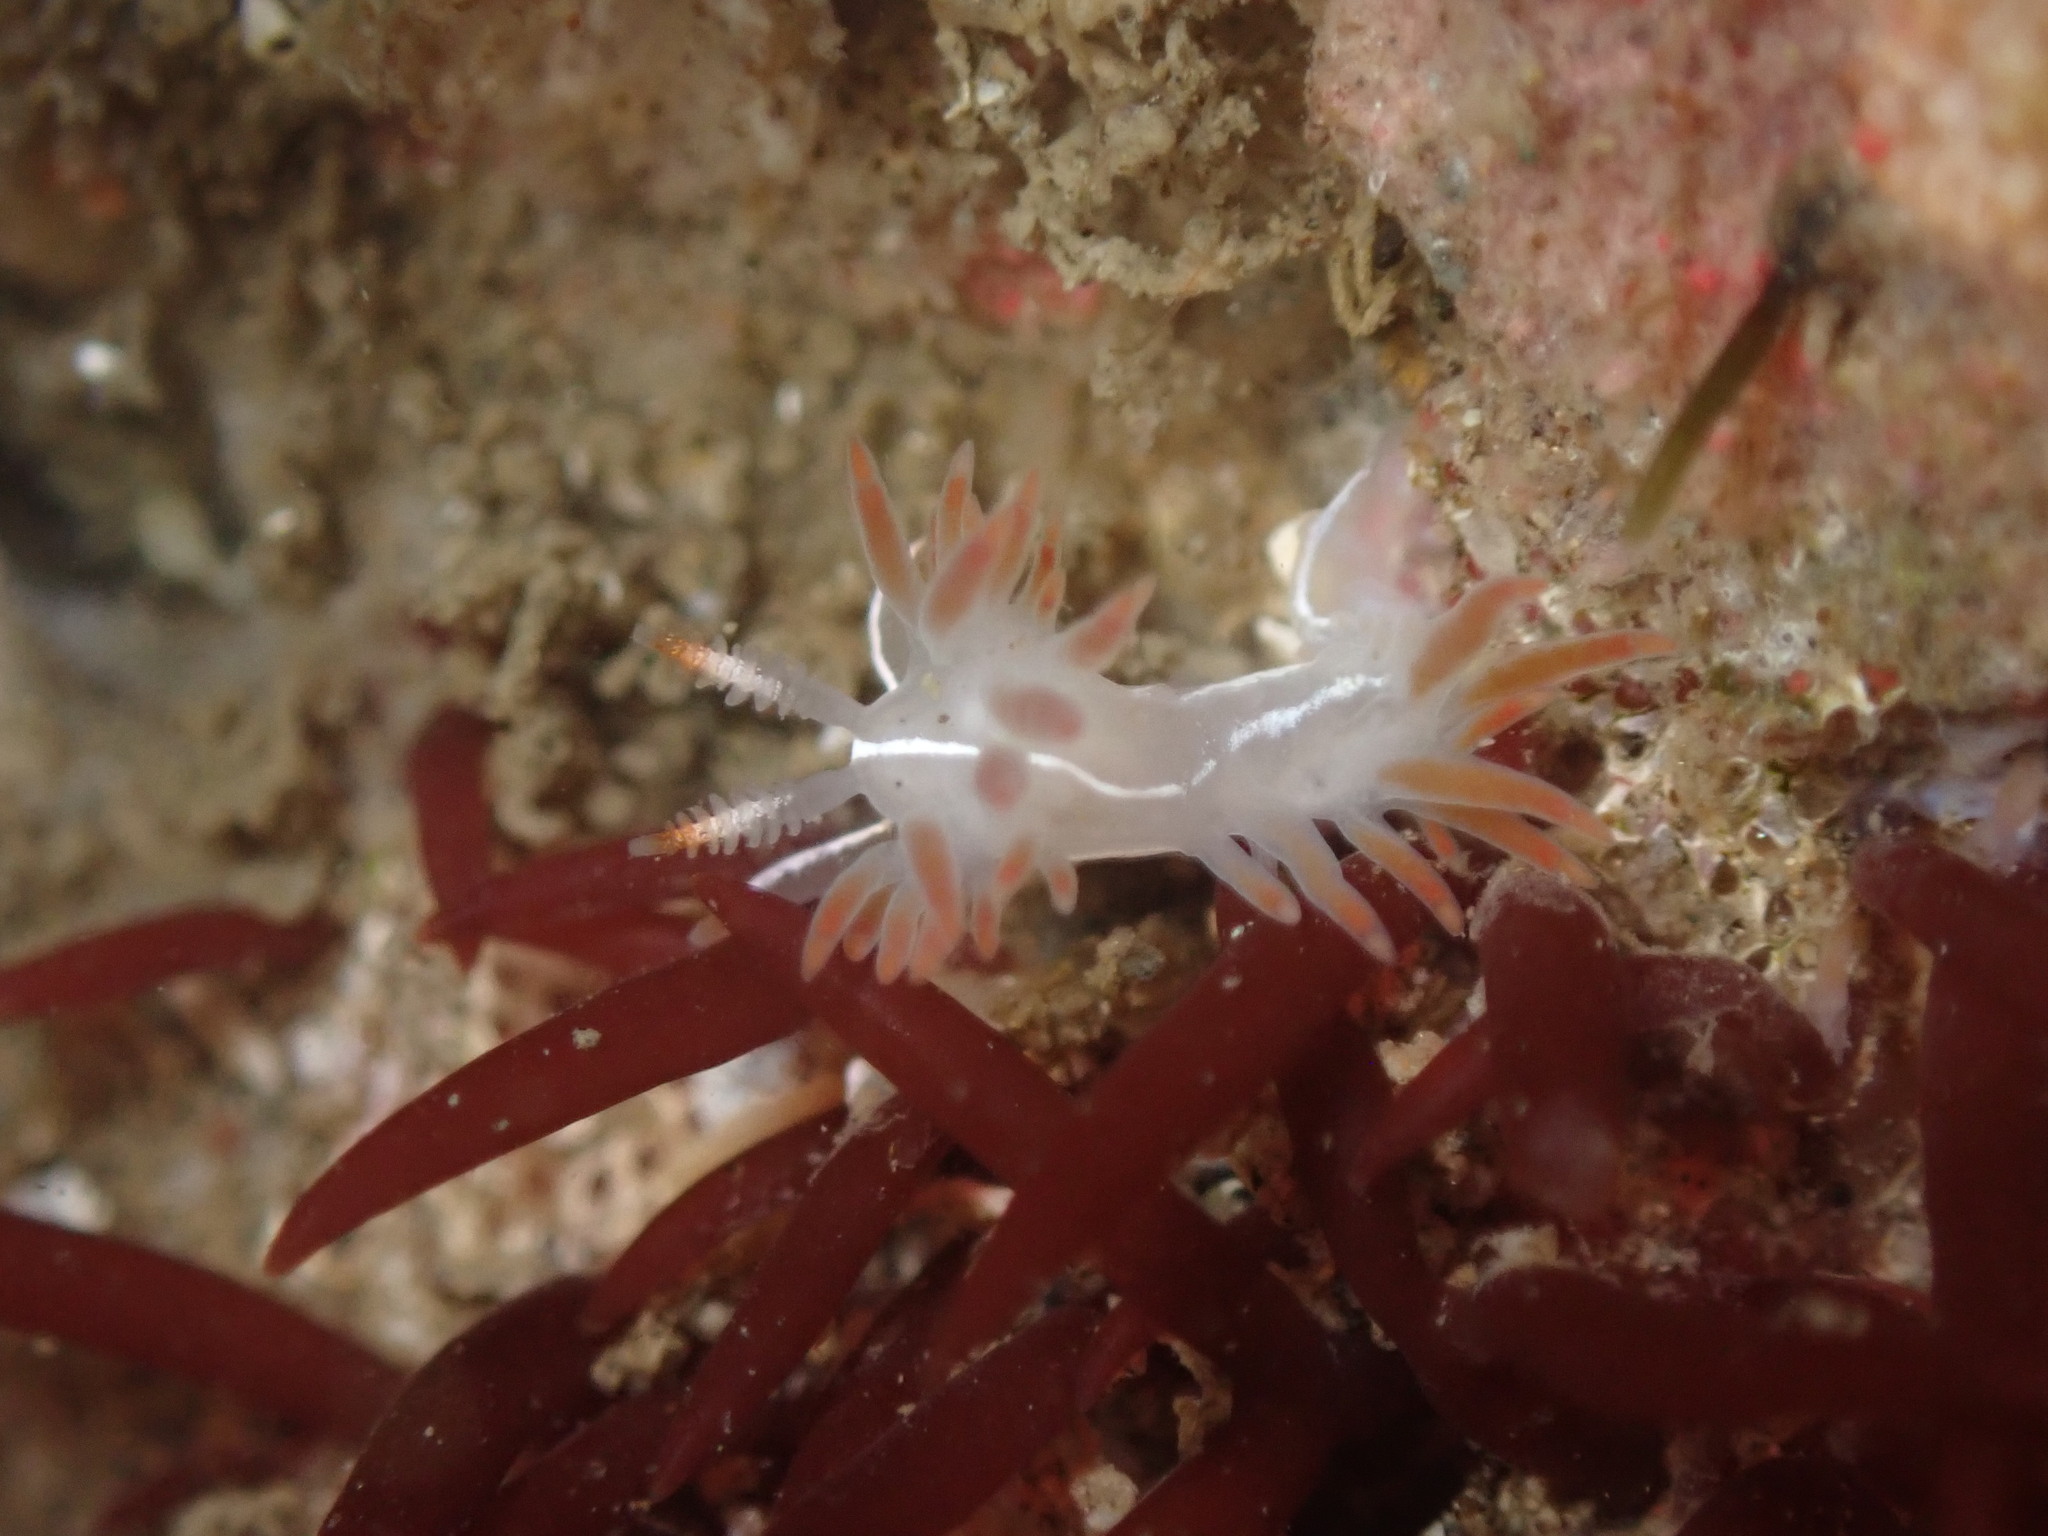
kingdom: Animalia
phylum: Mollusca
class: Gastropoda
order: Nudibranchia
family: Coryphellidae
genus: Coryphella
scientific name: Coryphella trilineata
